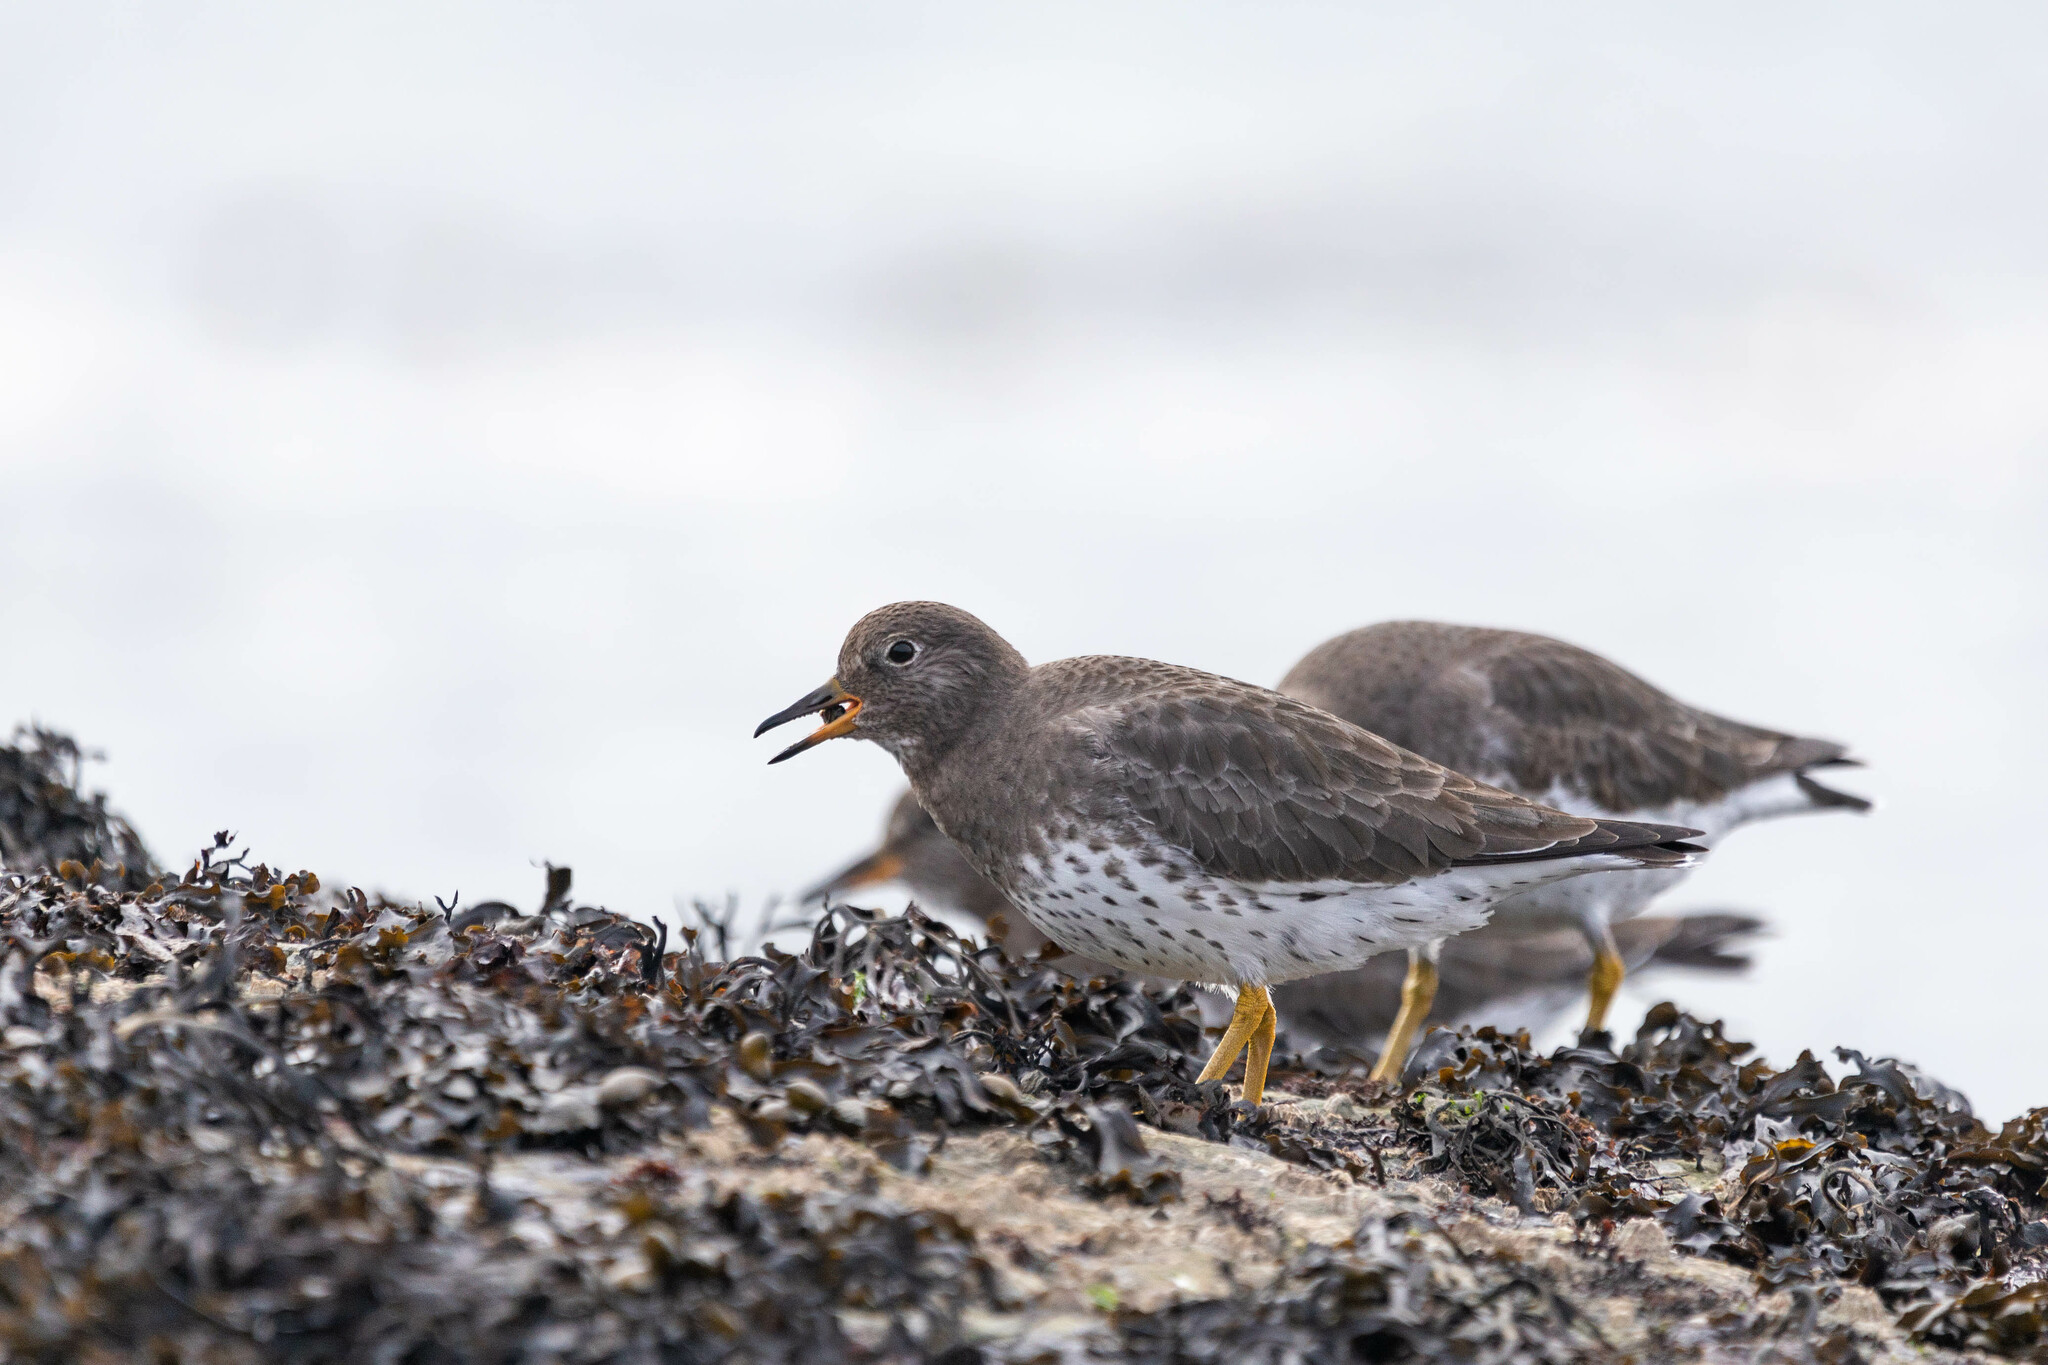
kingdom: Animalia
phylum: Chordata
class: Aves
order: Charadriiformes
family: Scolopacidae
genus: Calidris
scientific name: Calidris virgata
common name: Surfbird
